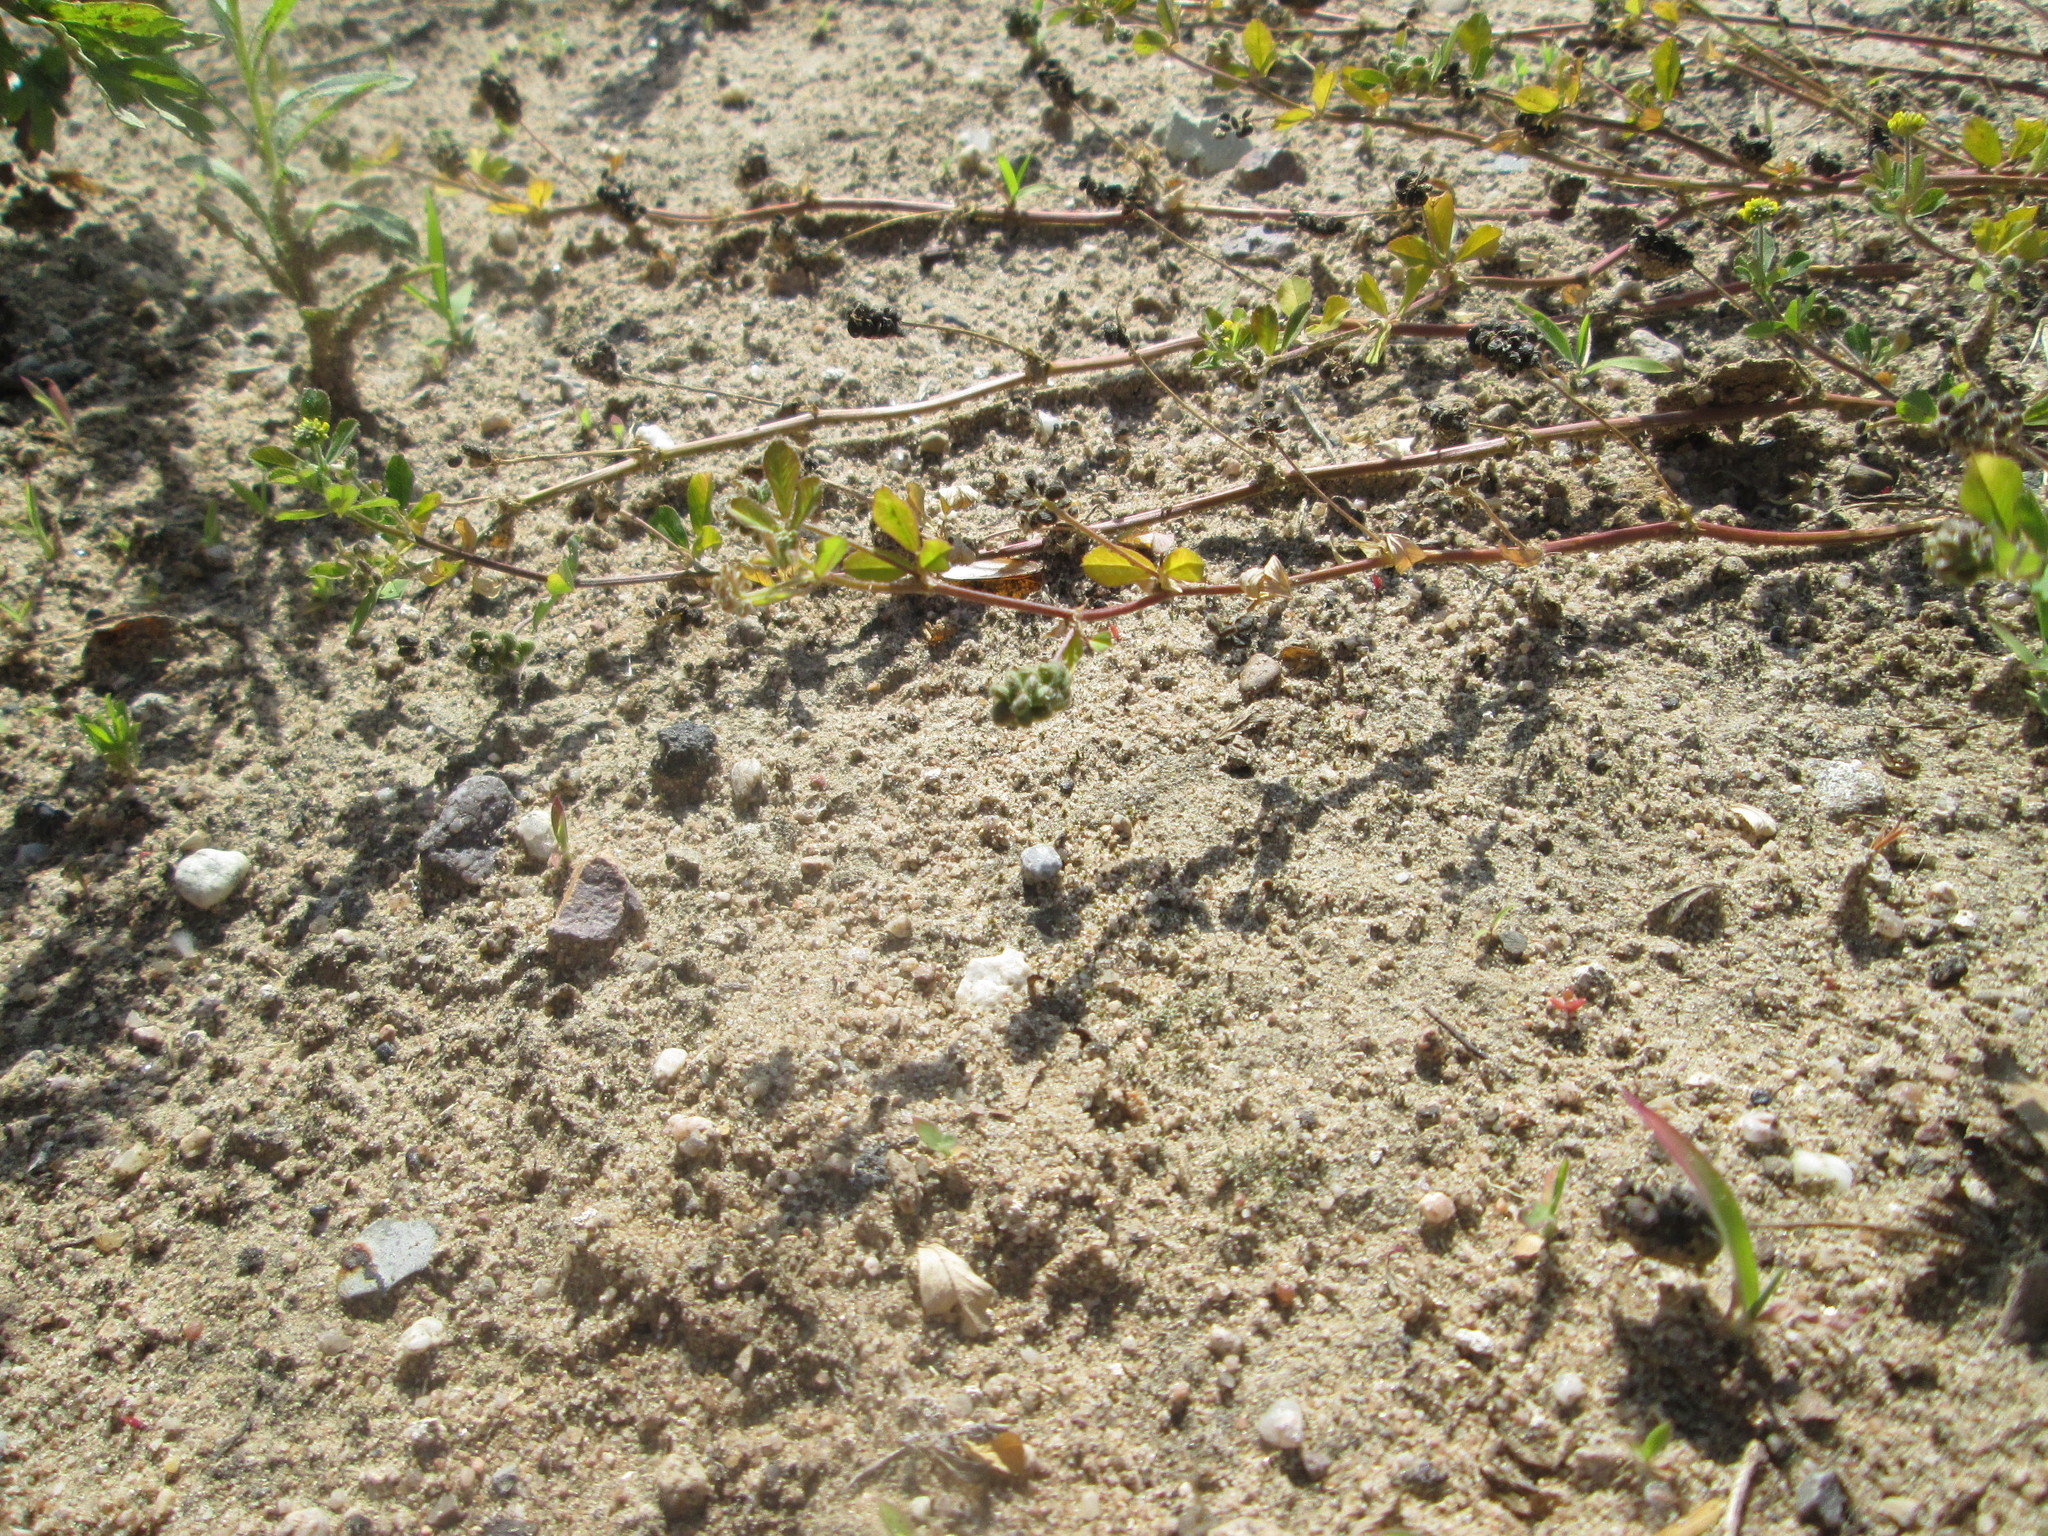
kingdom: Plantae
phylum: Tracheophyta
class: Magnoliopsida
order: Fabales
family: Fabaceae
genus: Medicago
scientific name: Medicago lupulina
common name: Black medick
